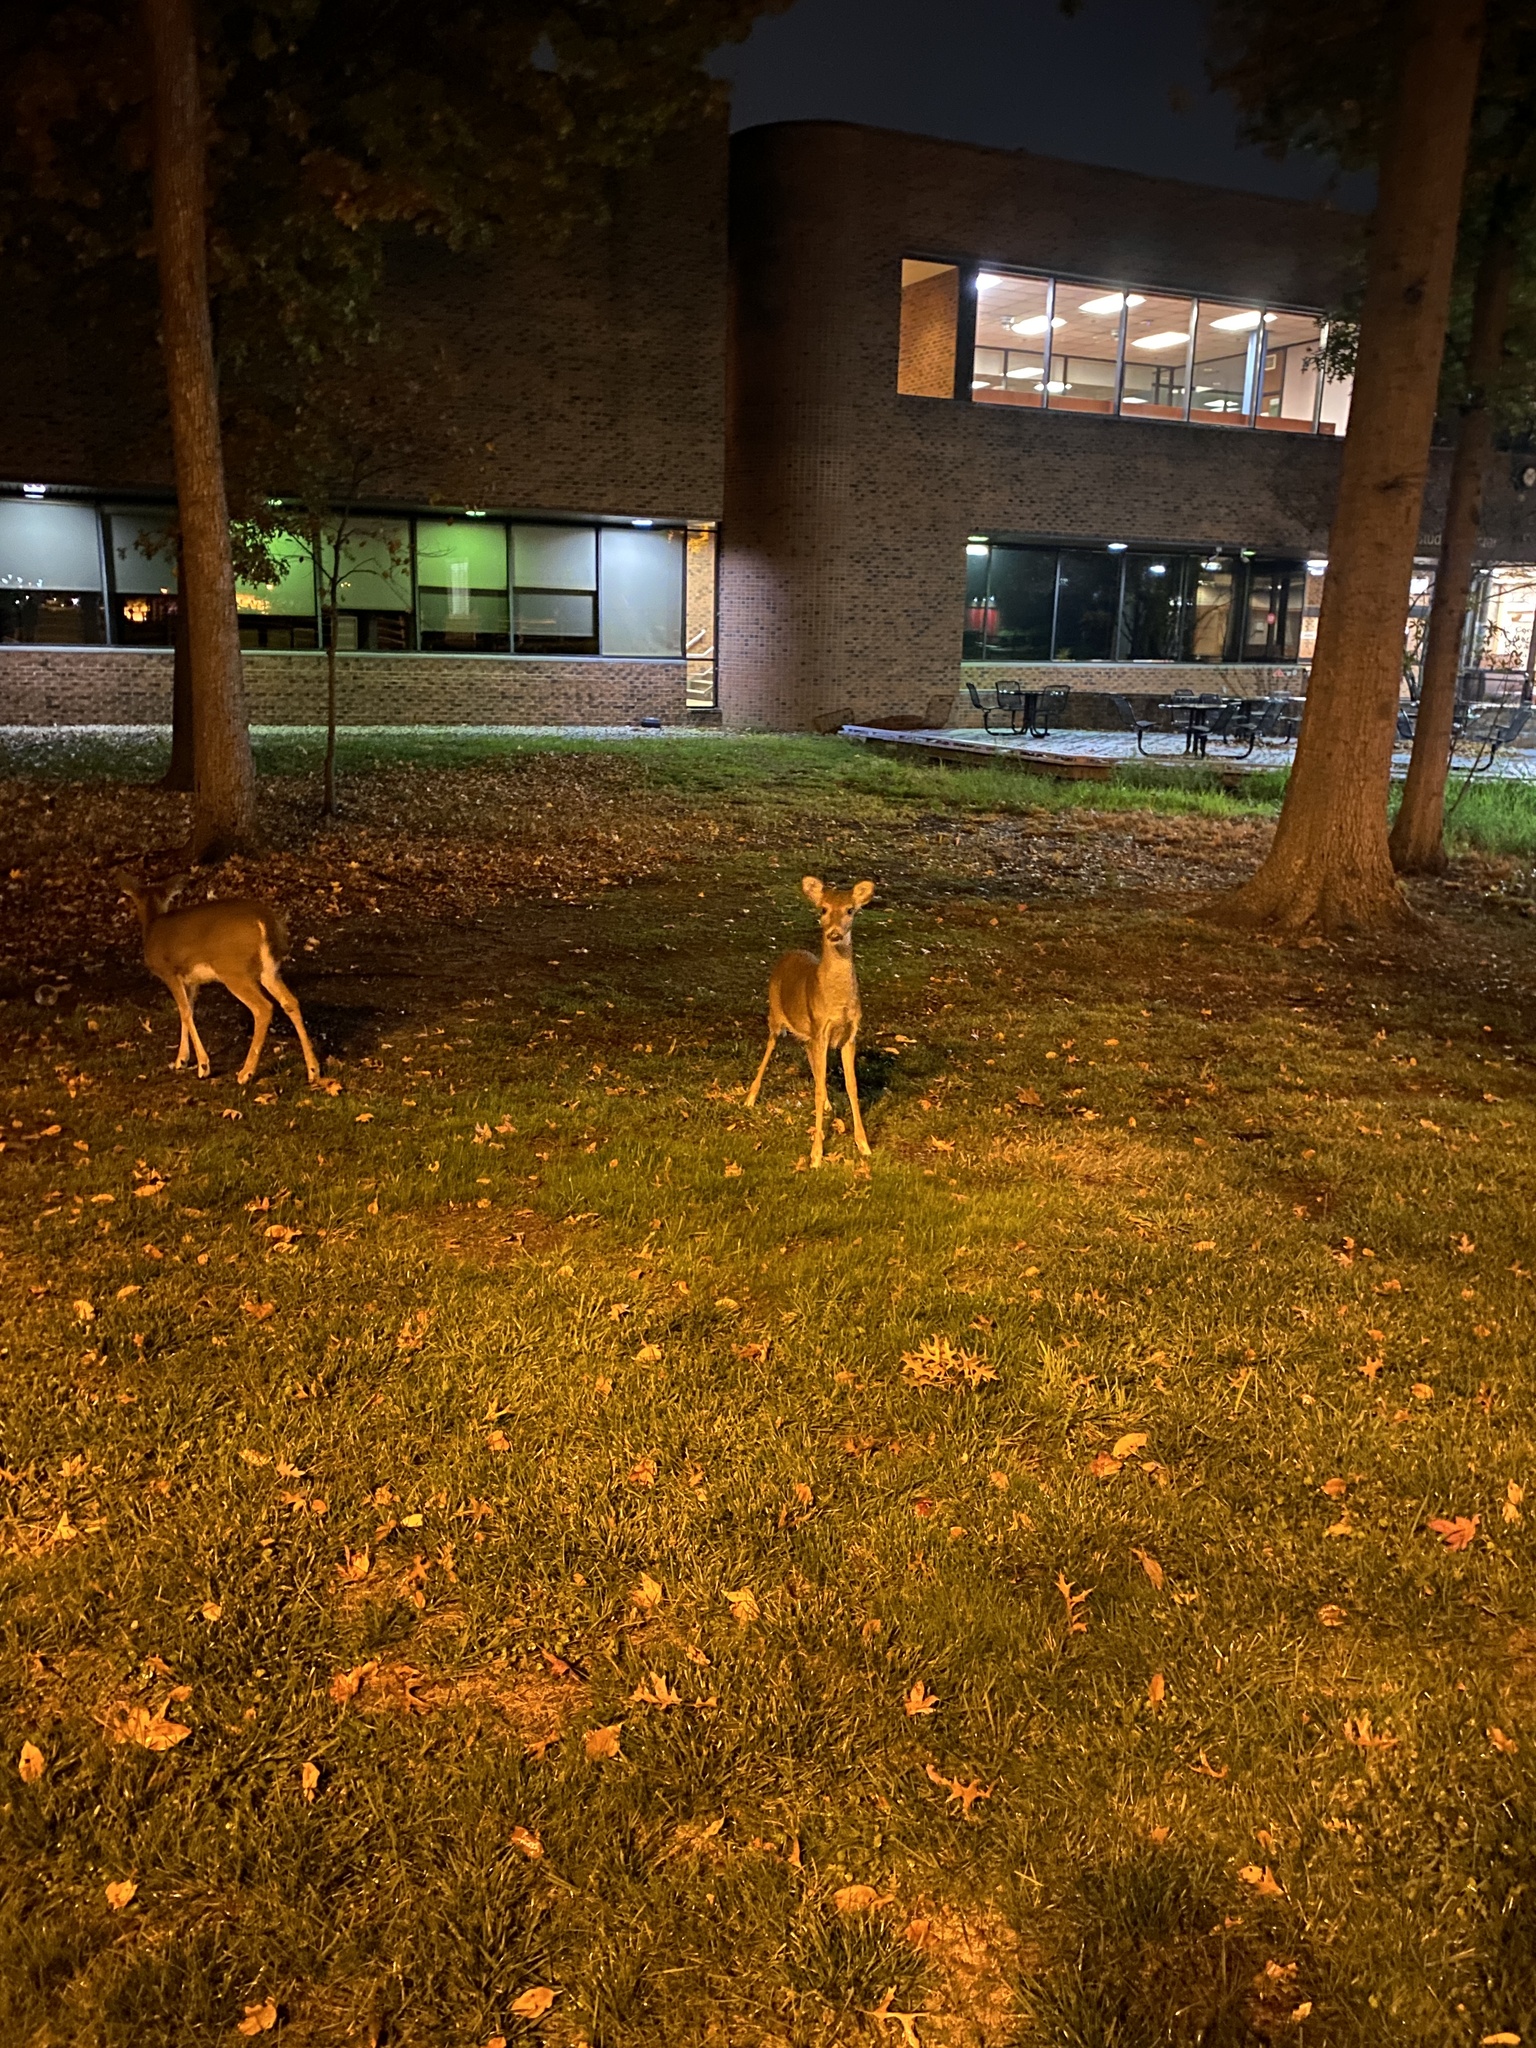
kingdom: Animalia
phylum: Chordata
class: Mammalia
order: Artiodactyla
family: Cervidae
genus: Odocoileus
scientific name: Odocoileus virginianus
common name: White-tailed deer
